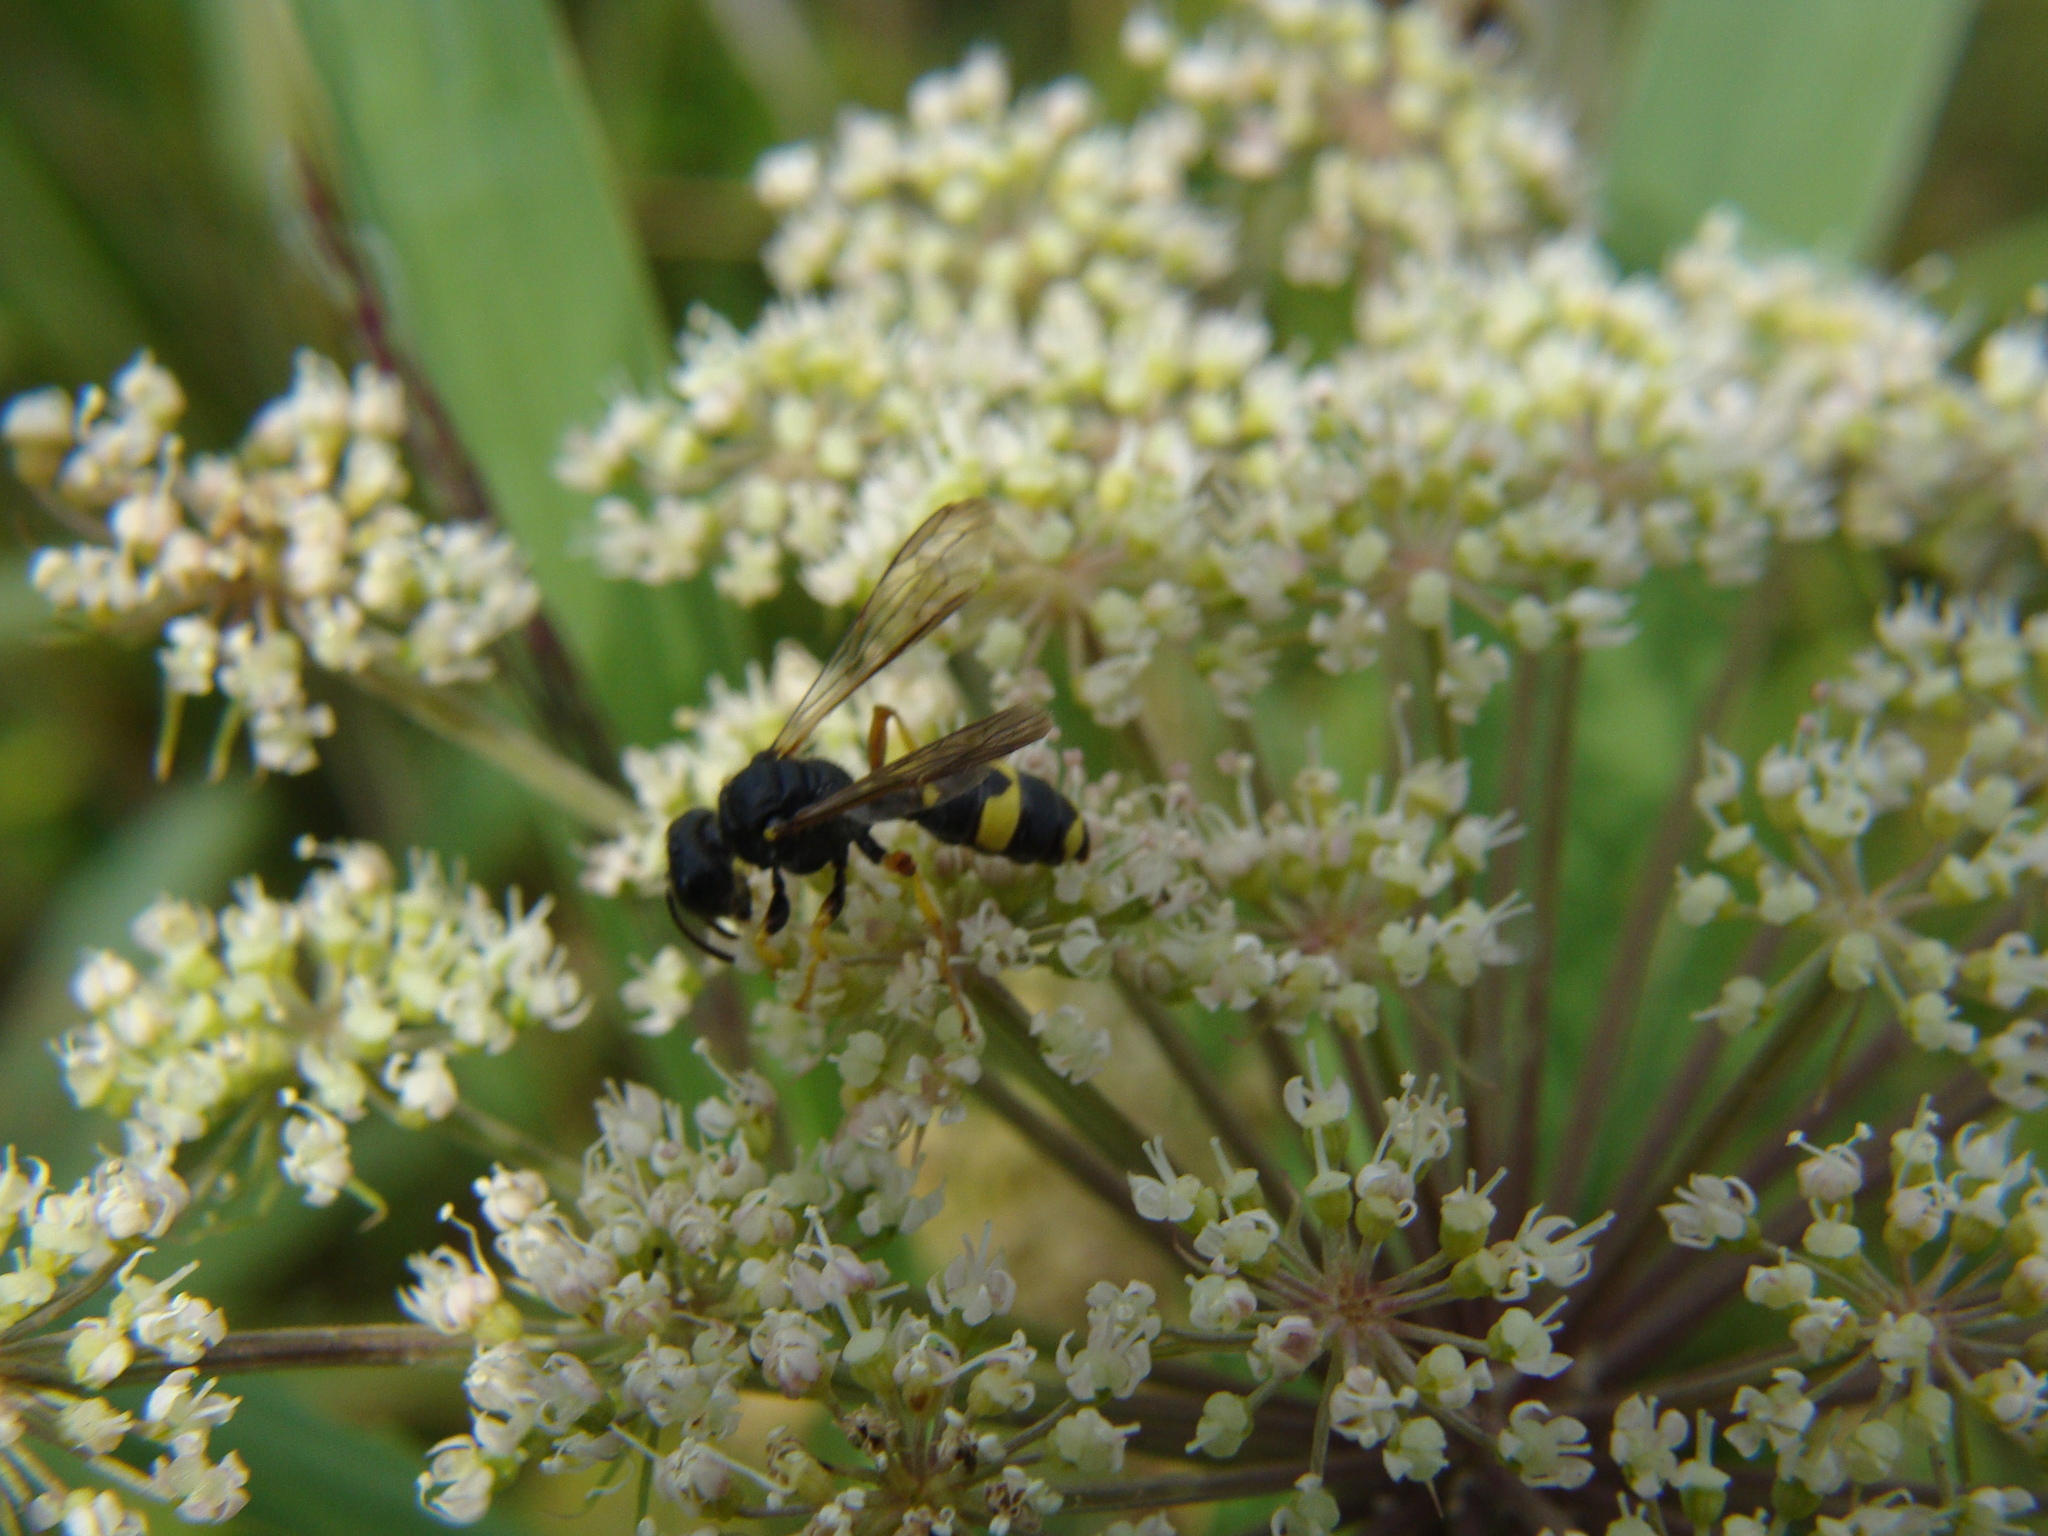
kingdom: Animalia
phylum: Arthropoda
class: Insecta
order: Hymenoptera
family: Crabronidae
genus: Cerceris
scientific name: Cerceris rybyensis
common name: Ornate tailed digger wasp
